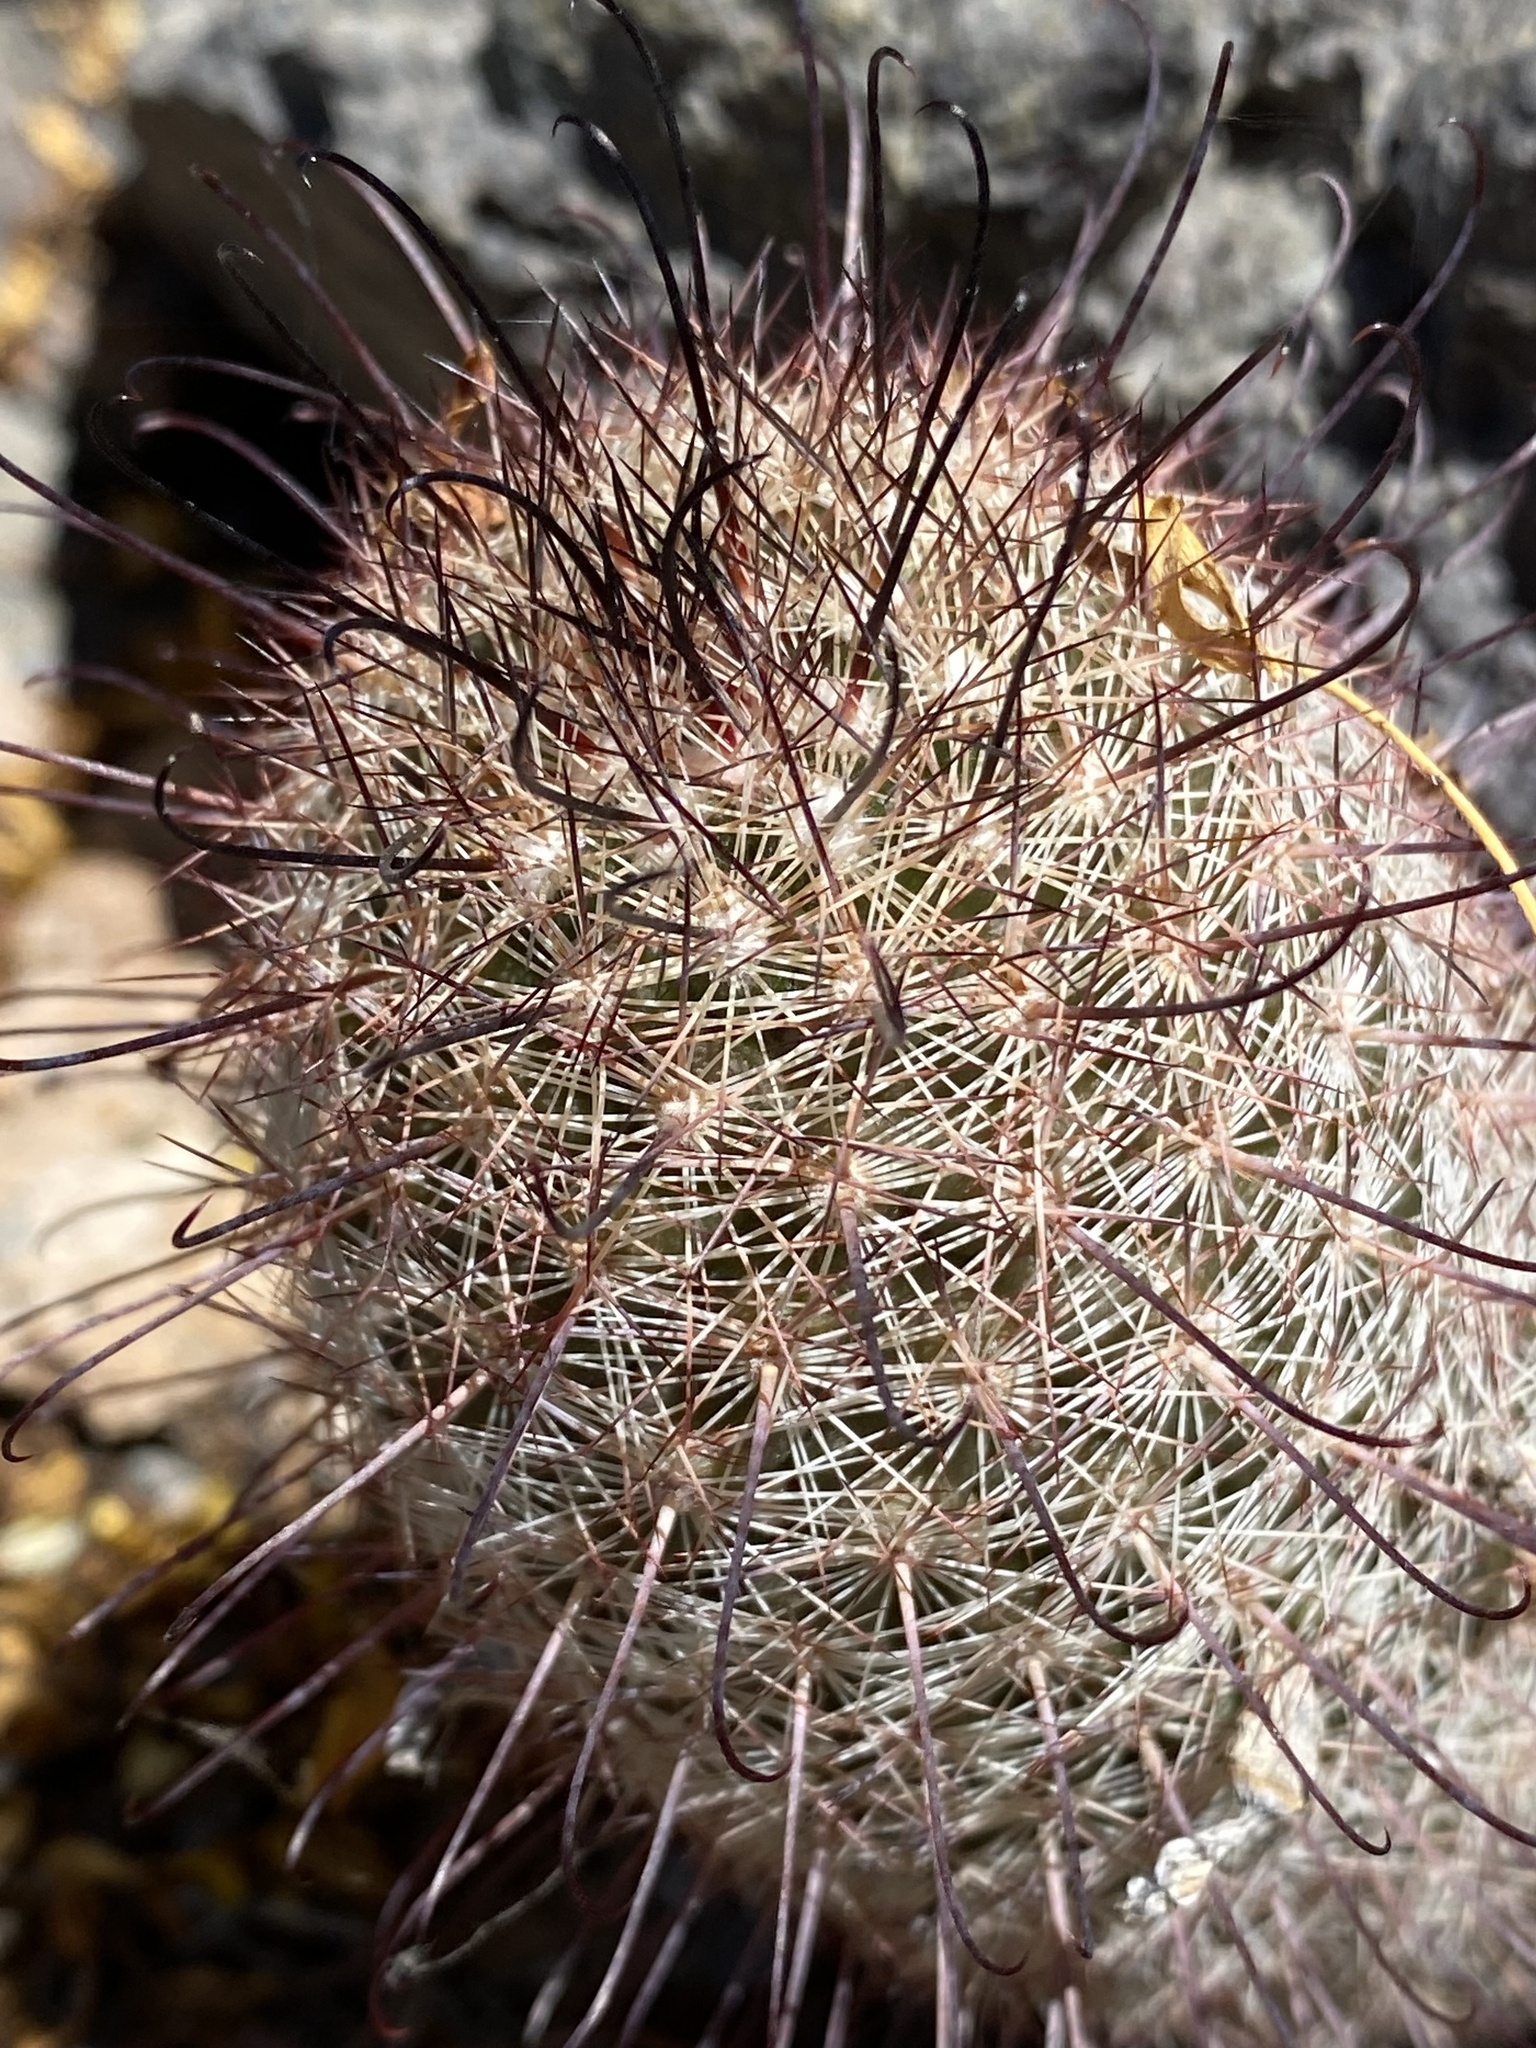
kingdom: Plantae
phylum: Tracheophyta
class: Magnoliopsida
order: Caryophyllales
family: Cactaceae
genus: Cochemiea
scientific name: Cochemiea grahamii
